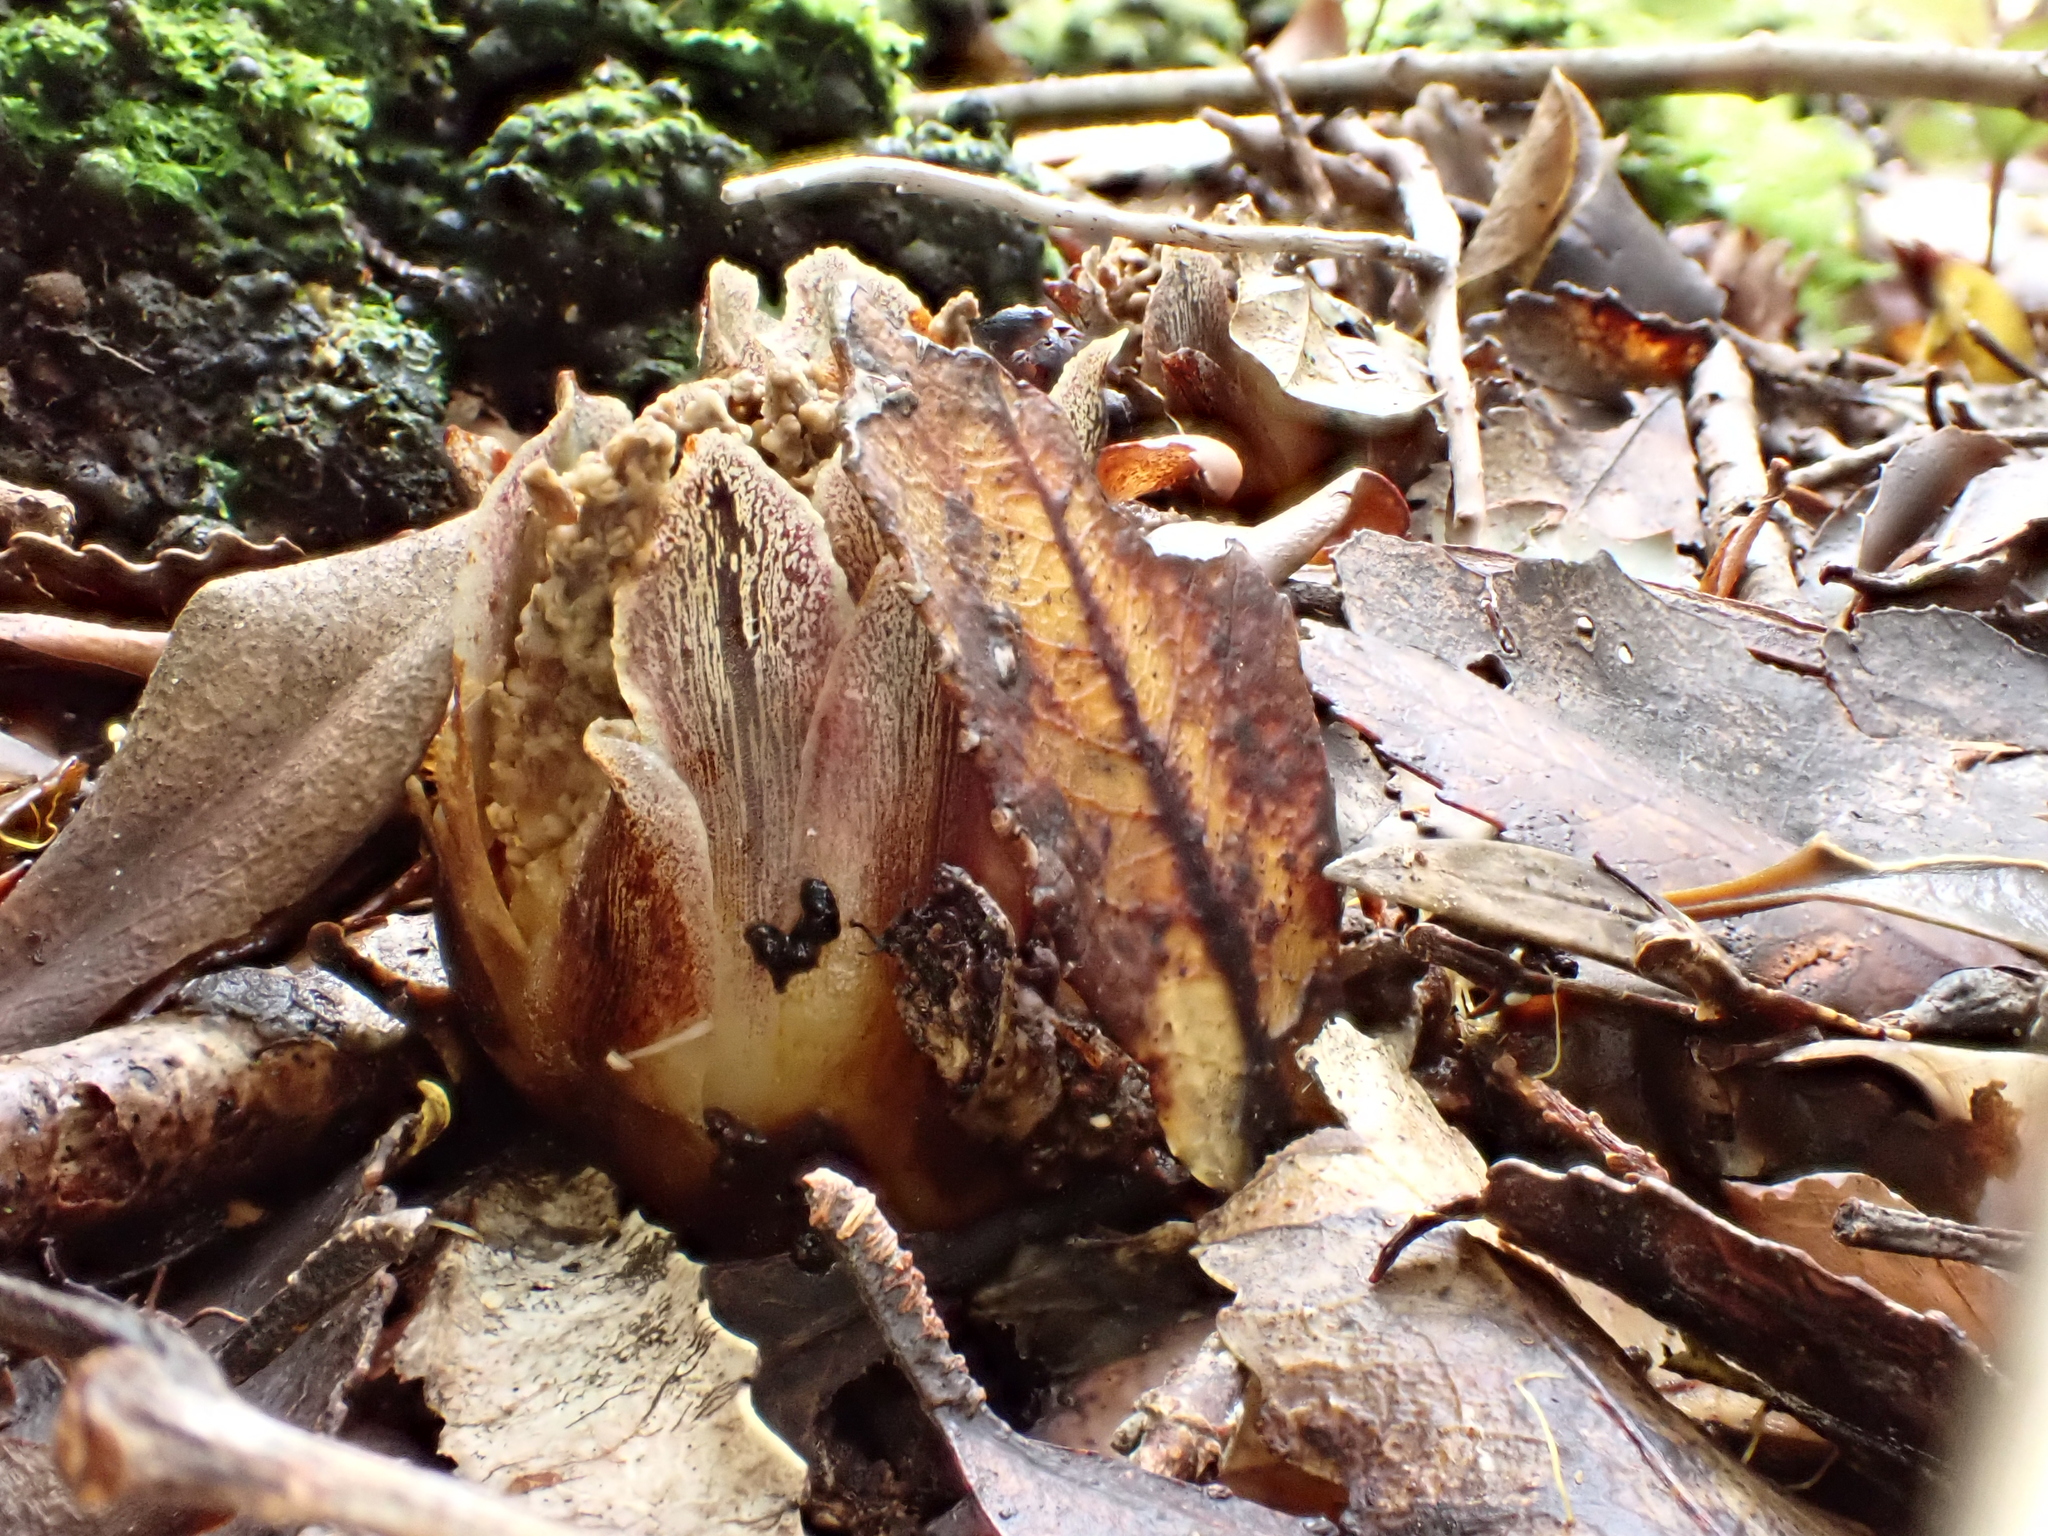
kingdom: Plantae
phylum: Tracheophyta
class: Magnoliopsida
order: Santalales
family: Mystropetalaceae
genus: Dactylanthus
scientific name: Dactylanthus taylorii
